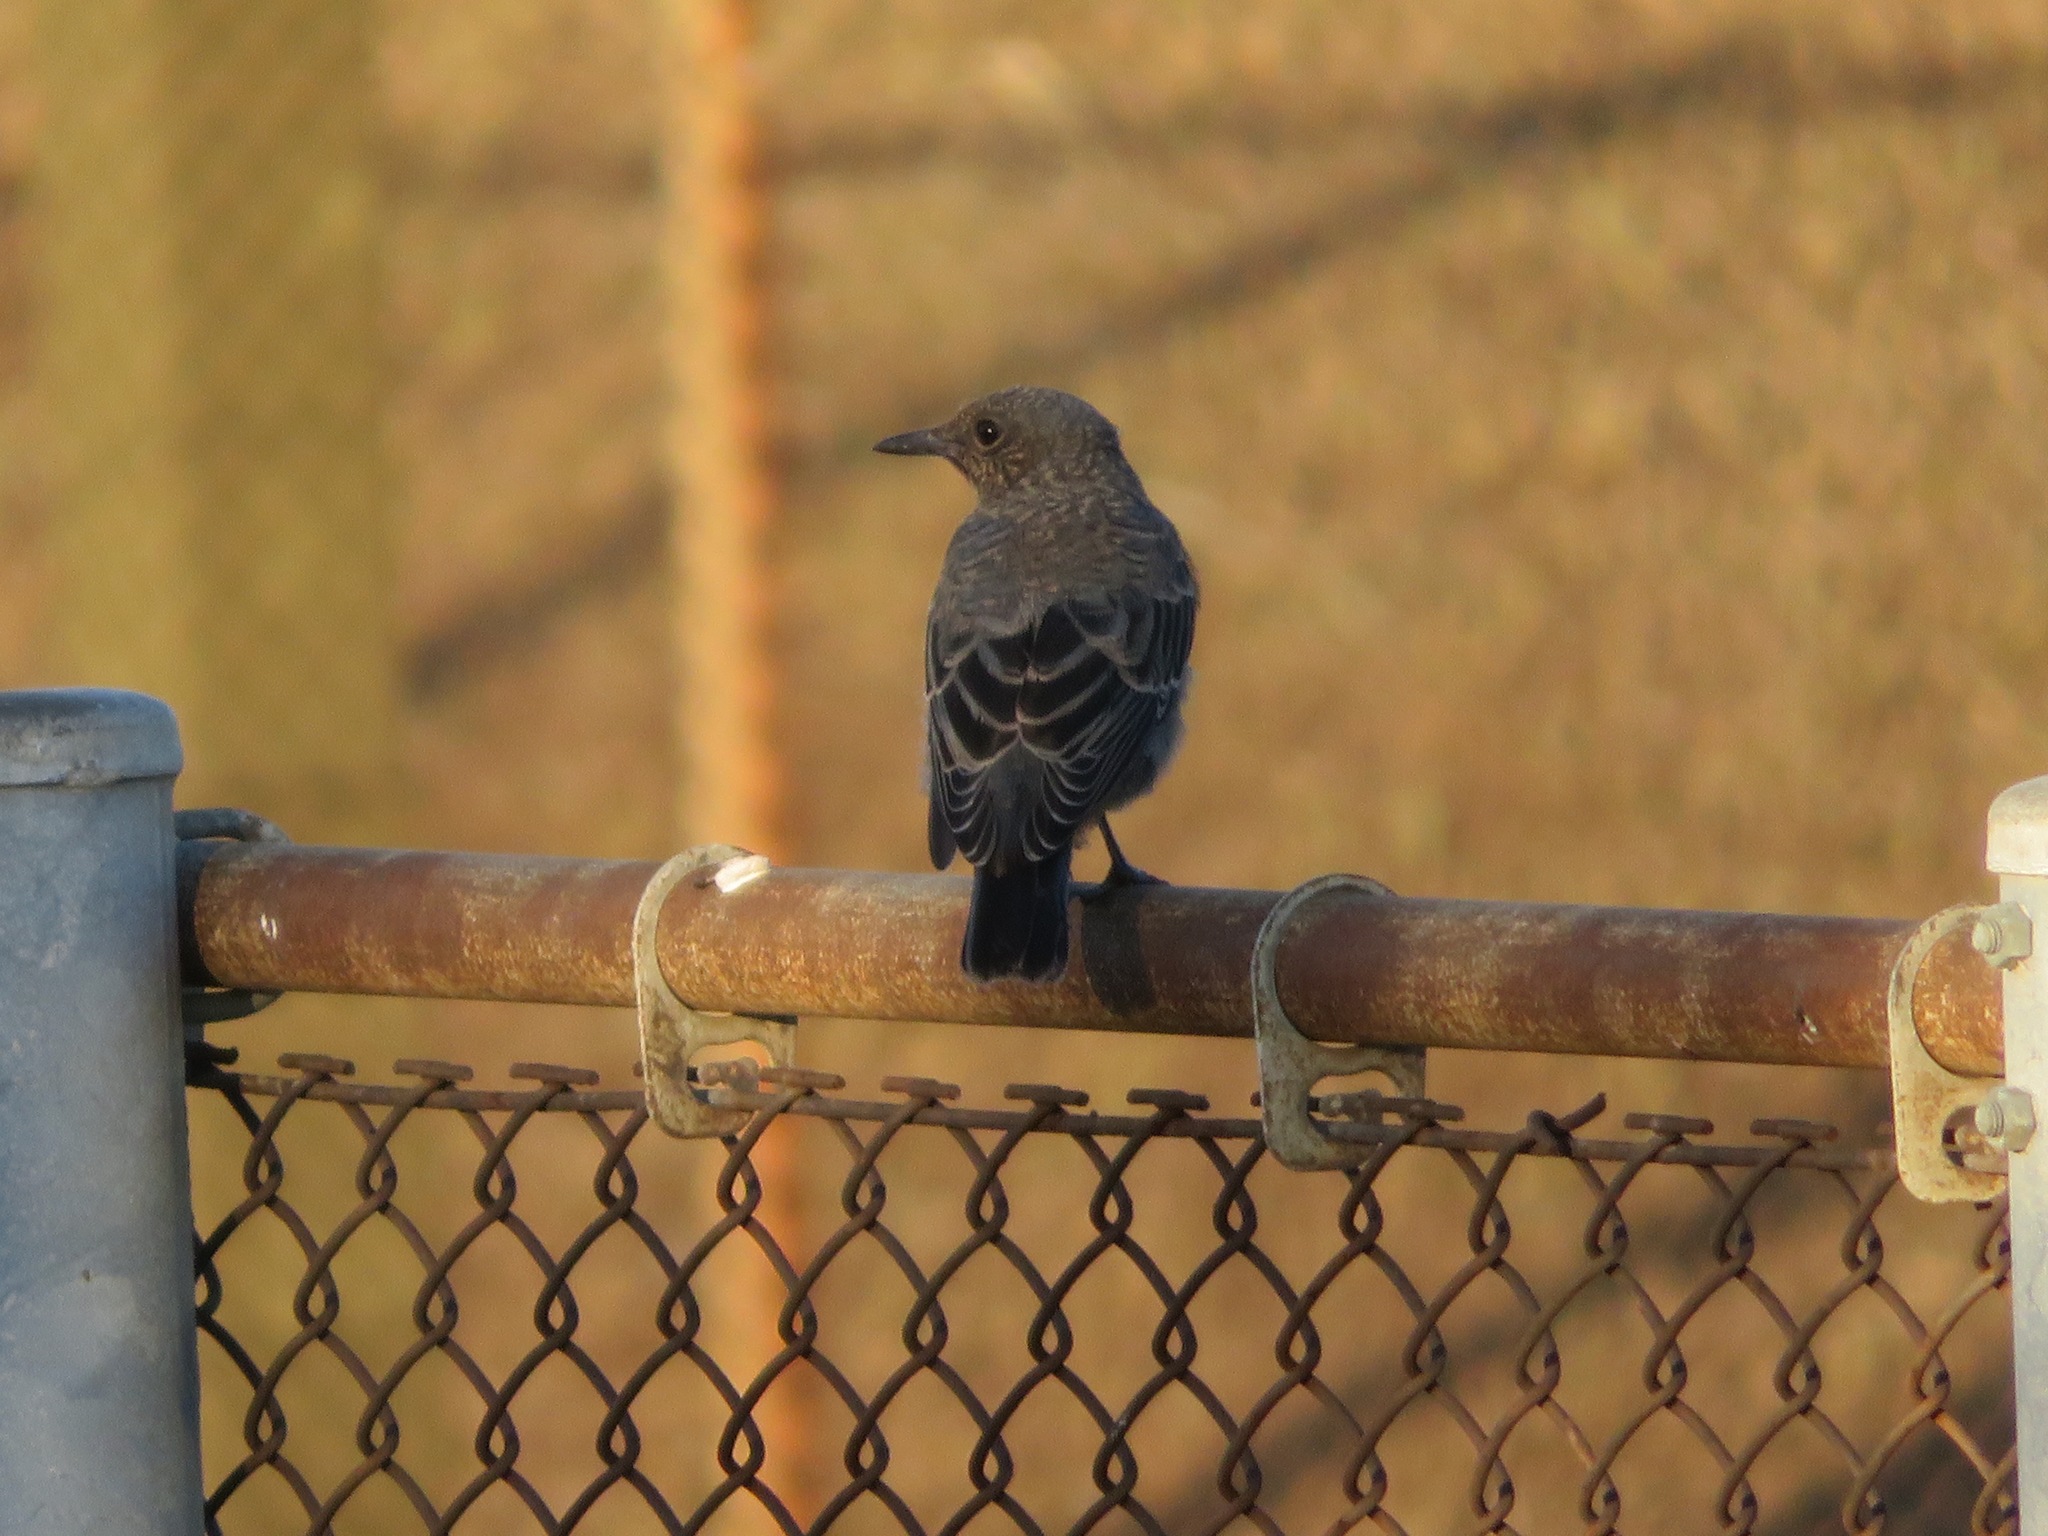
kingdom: Animalia
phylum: Chordata
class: Aves
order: Passeriformes
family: Muscicapidae
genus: Monticola
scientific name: Monticola solitarius
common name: Blue rock thrush
